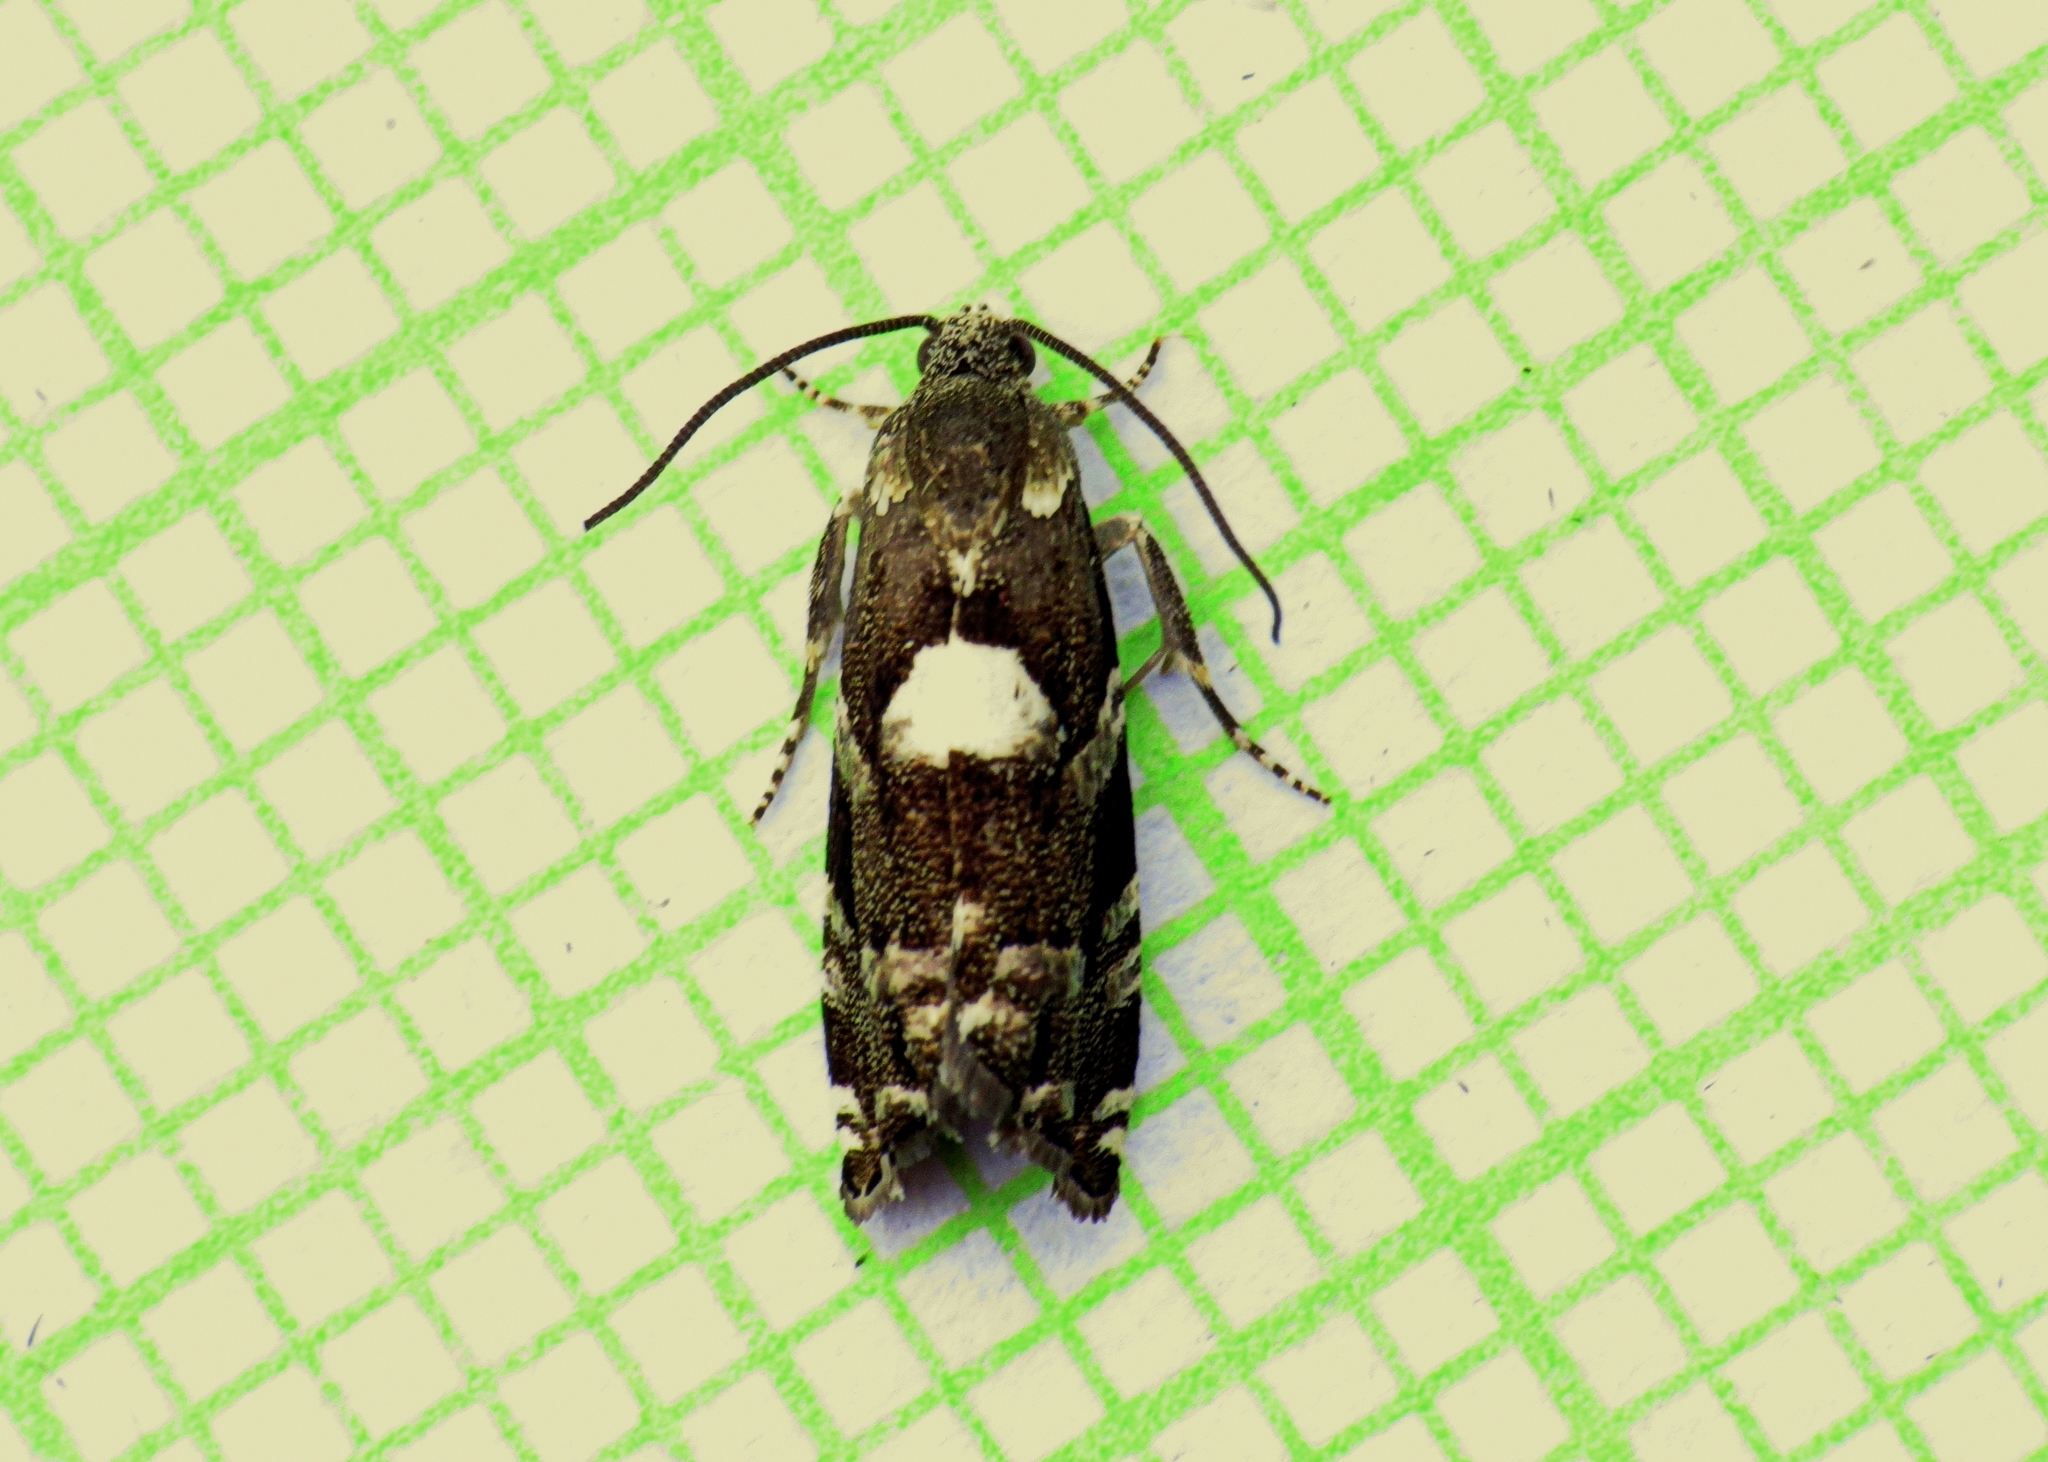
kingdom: Animalia
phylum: Arthropoda
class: Insecta
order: Lepidoptera
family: Tortricidae
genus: Cydia
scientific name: Cydia albimaculana
